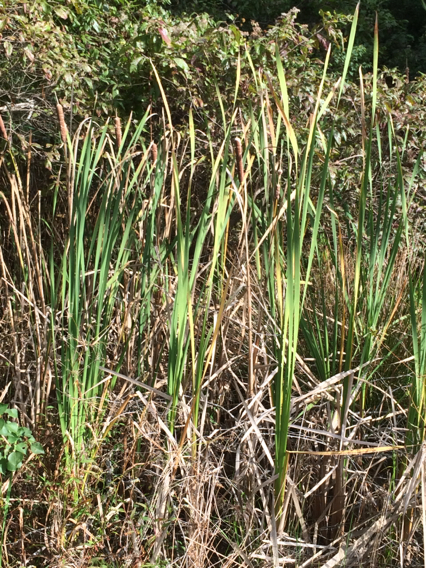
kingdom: Plantae
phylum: Tracheophyta
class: Liliopsida
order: Poales
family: Typhaceae
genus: Typha
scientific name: Typha latifolia
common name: Broadleaf cattail
